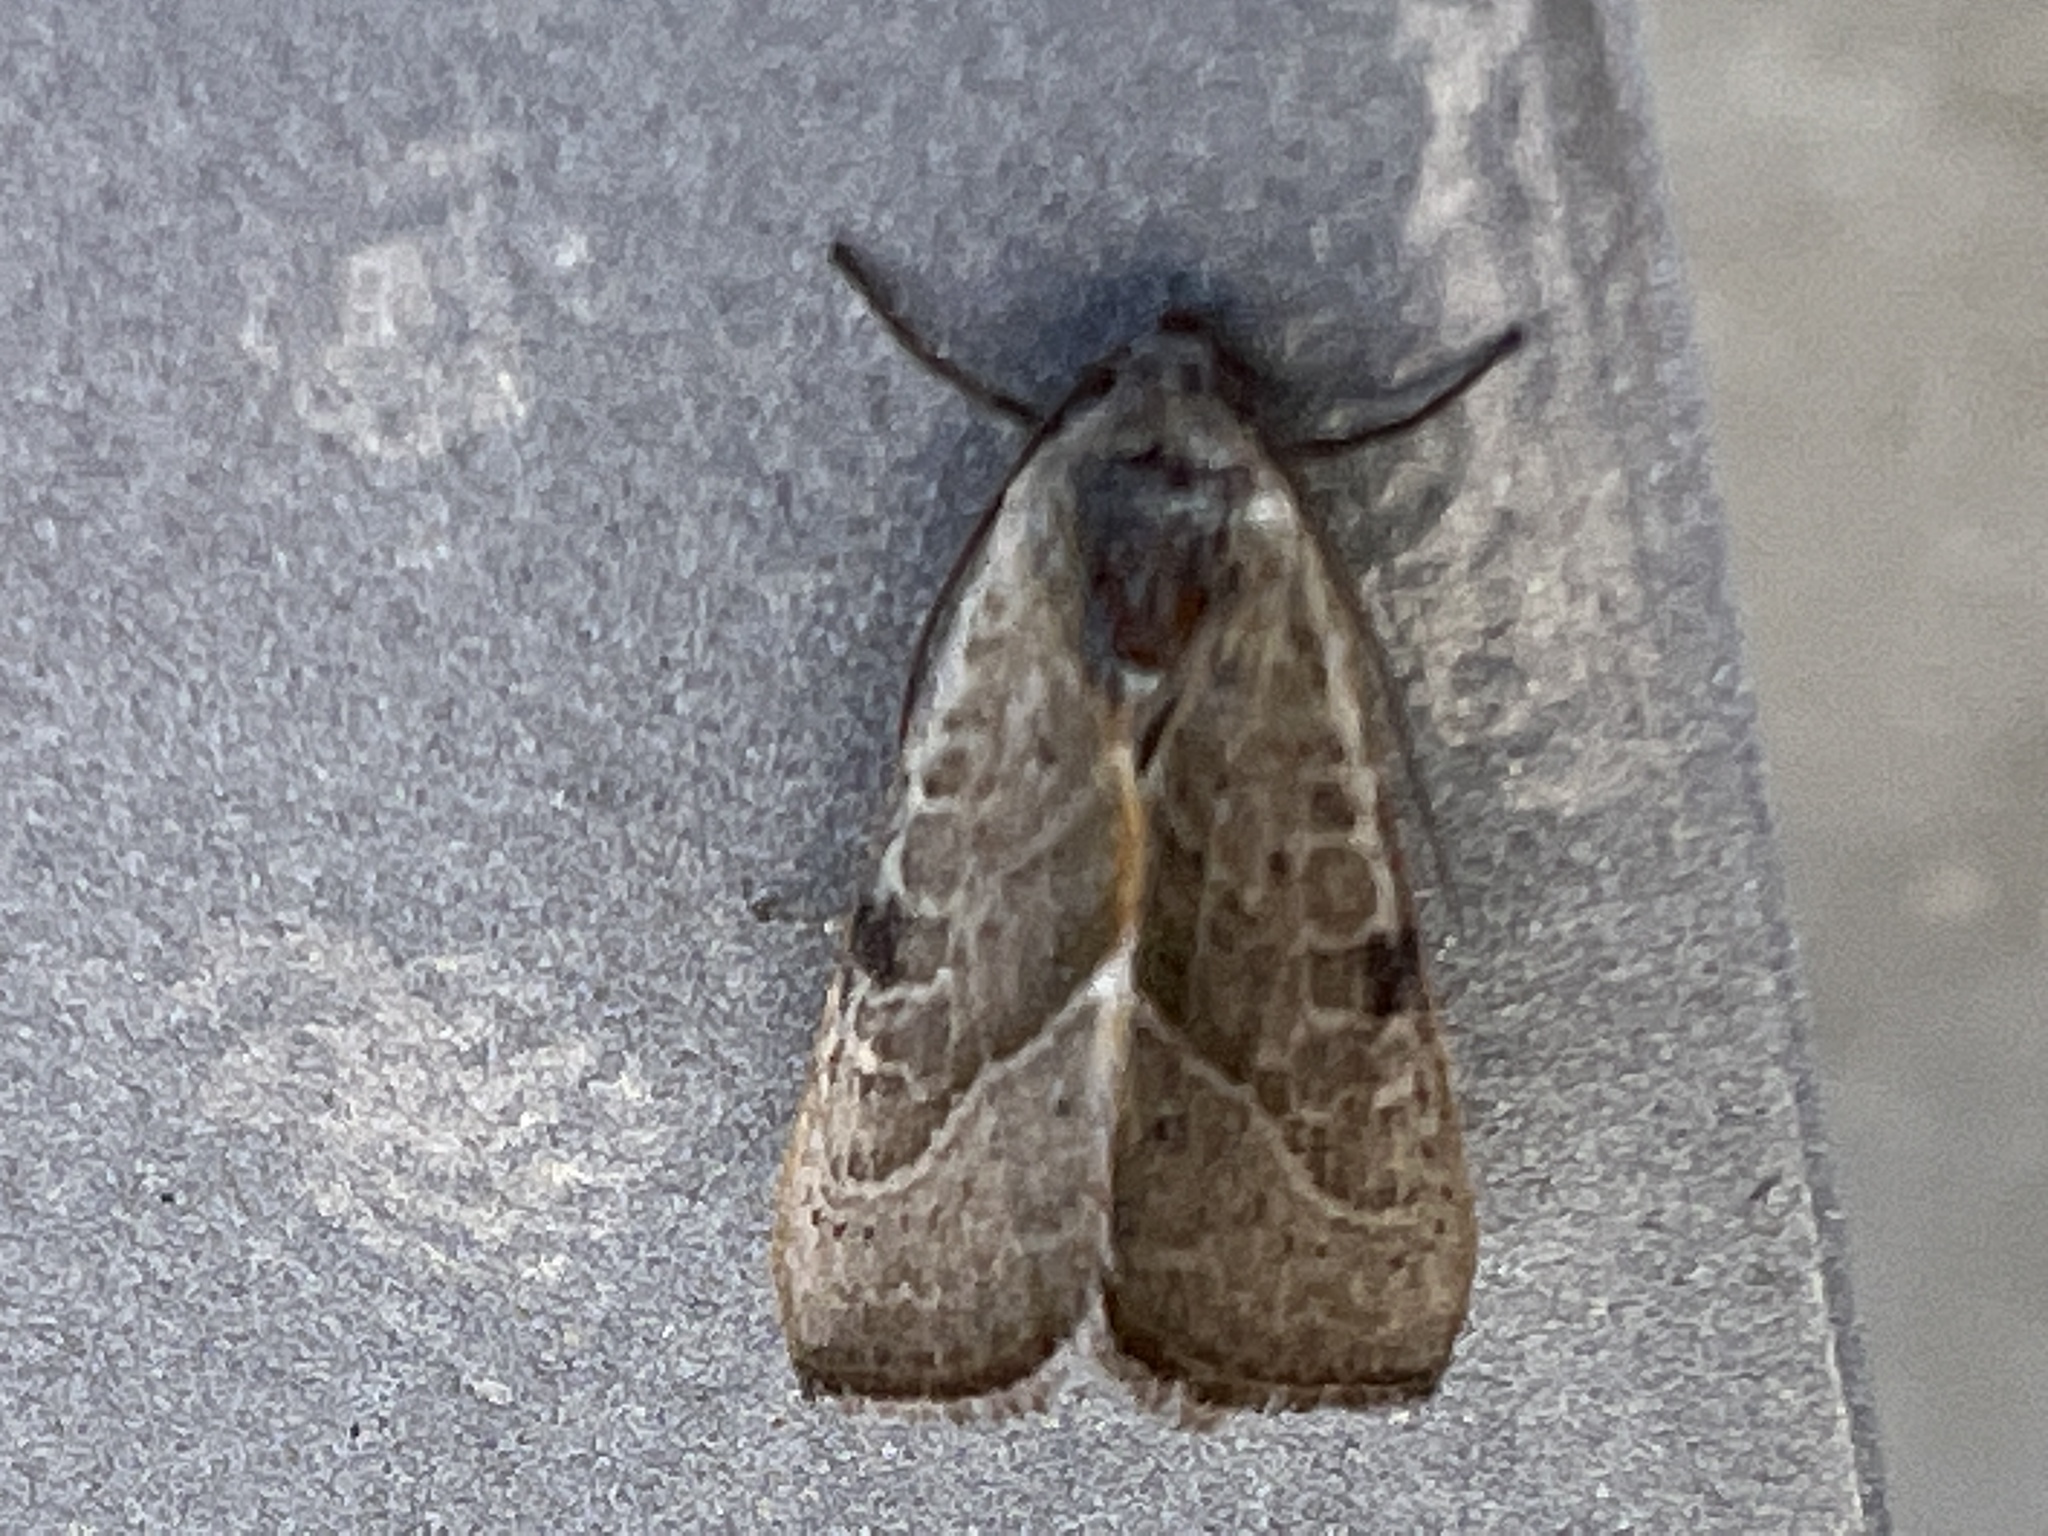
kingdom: Animalia
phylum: Arthropoda
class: Insecta
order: Lepidoptera
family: Noctuidae
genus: Galgula
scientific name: Galgula partita
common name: Wedgeling
